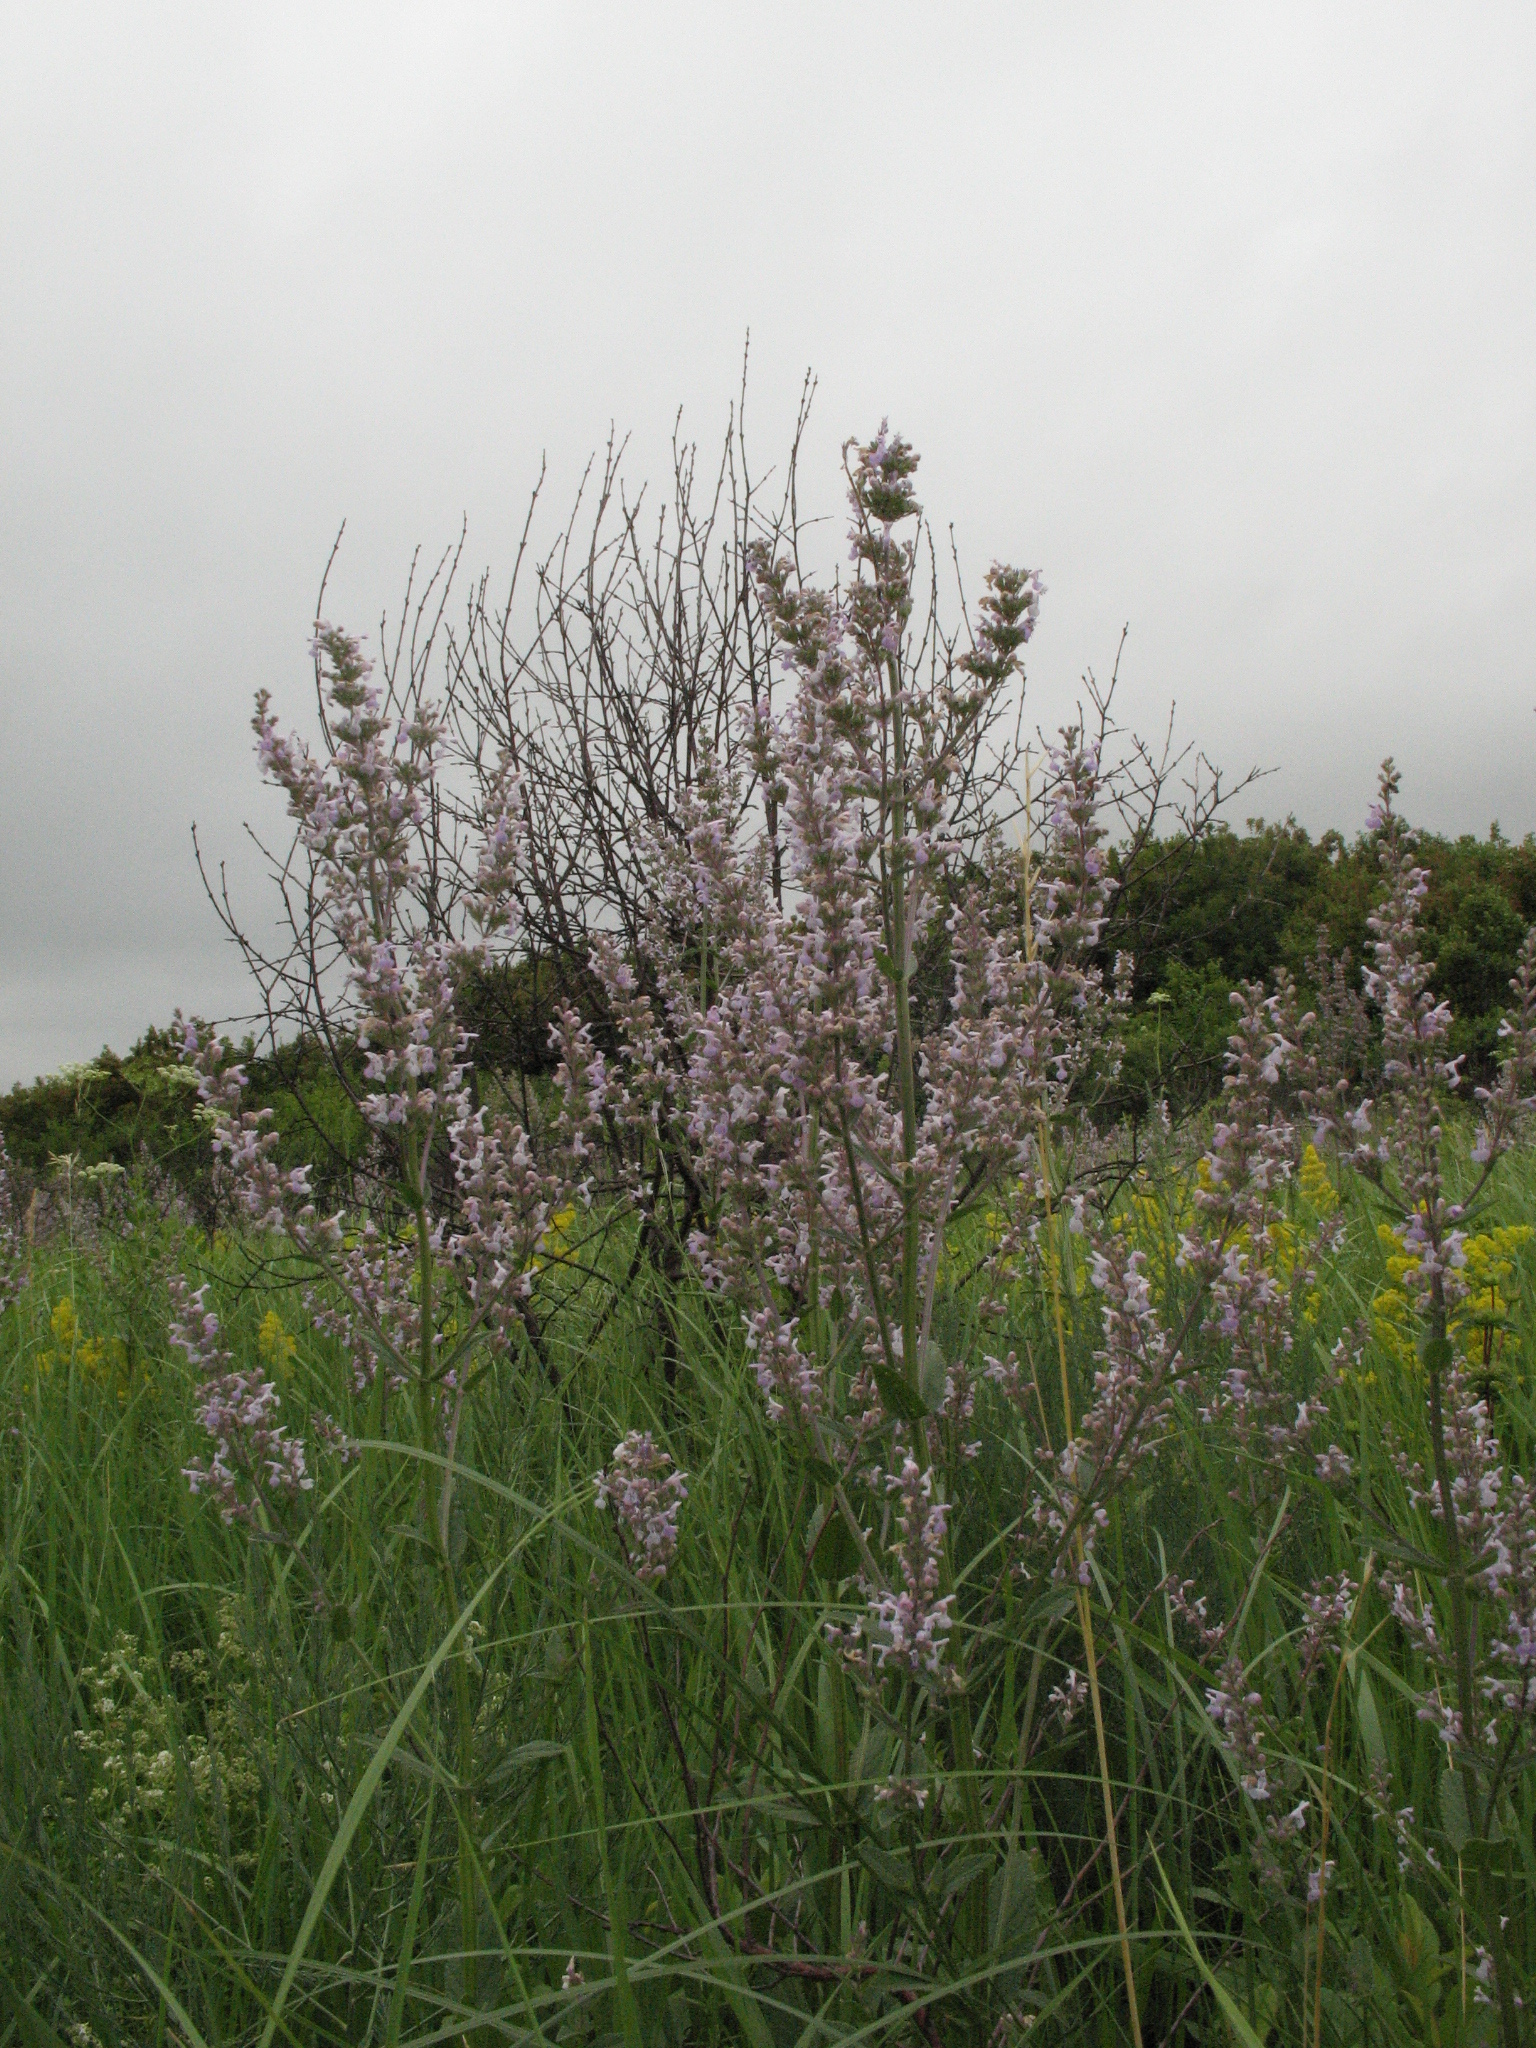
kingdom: Plantae
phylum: Tracheophyta
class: Magnoliopsida
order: Lamiales
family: Lamiaceae
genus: Nepeta
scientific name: Nepeta nuda
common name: Hairless catmint
